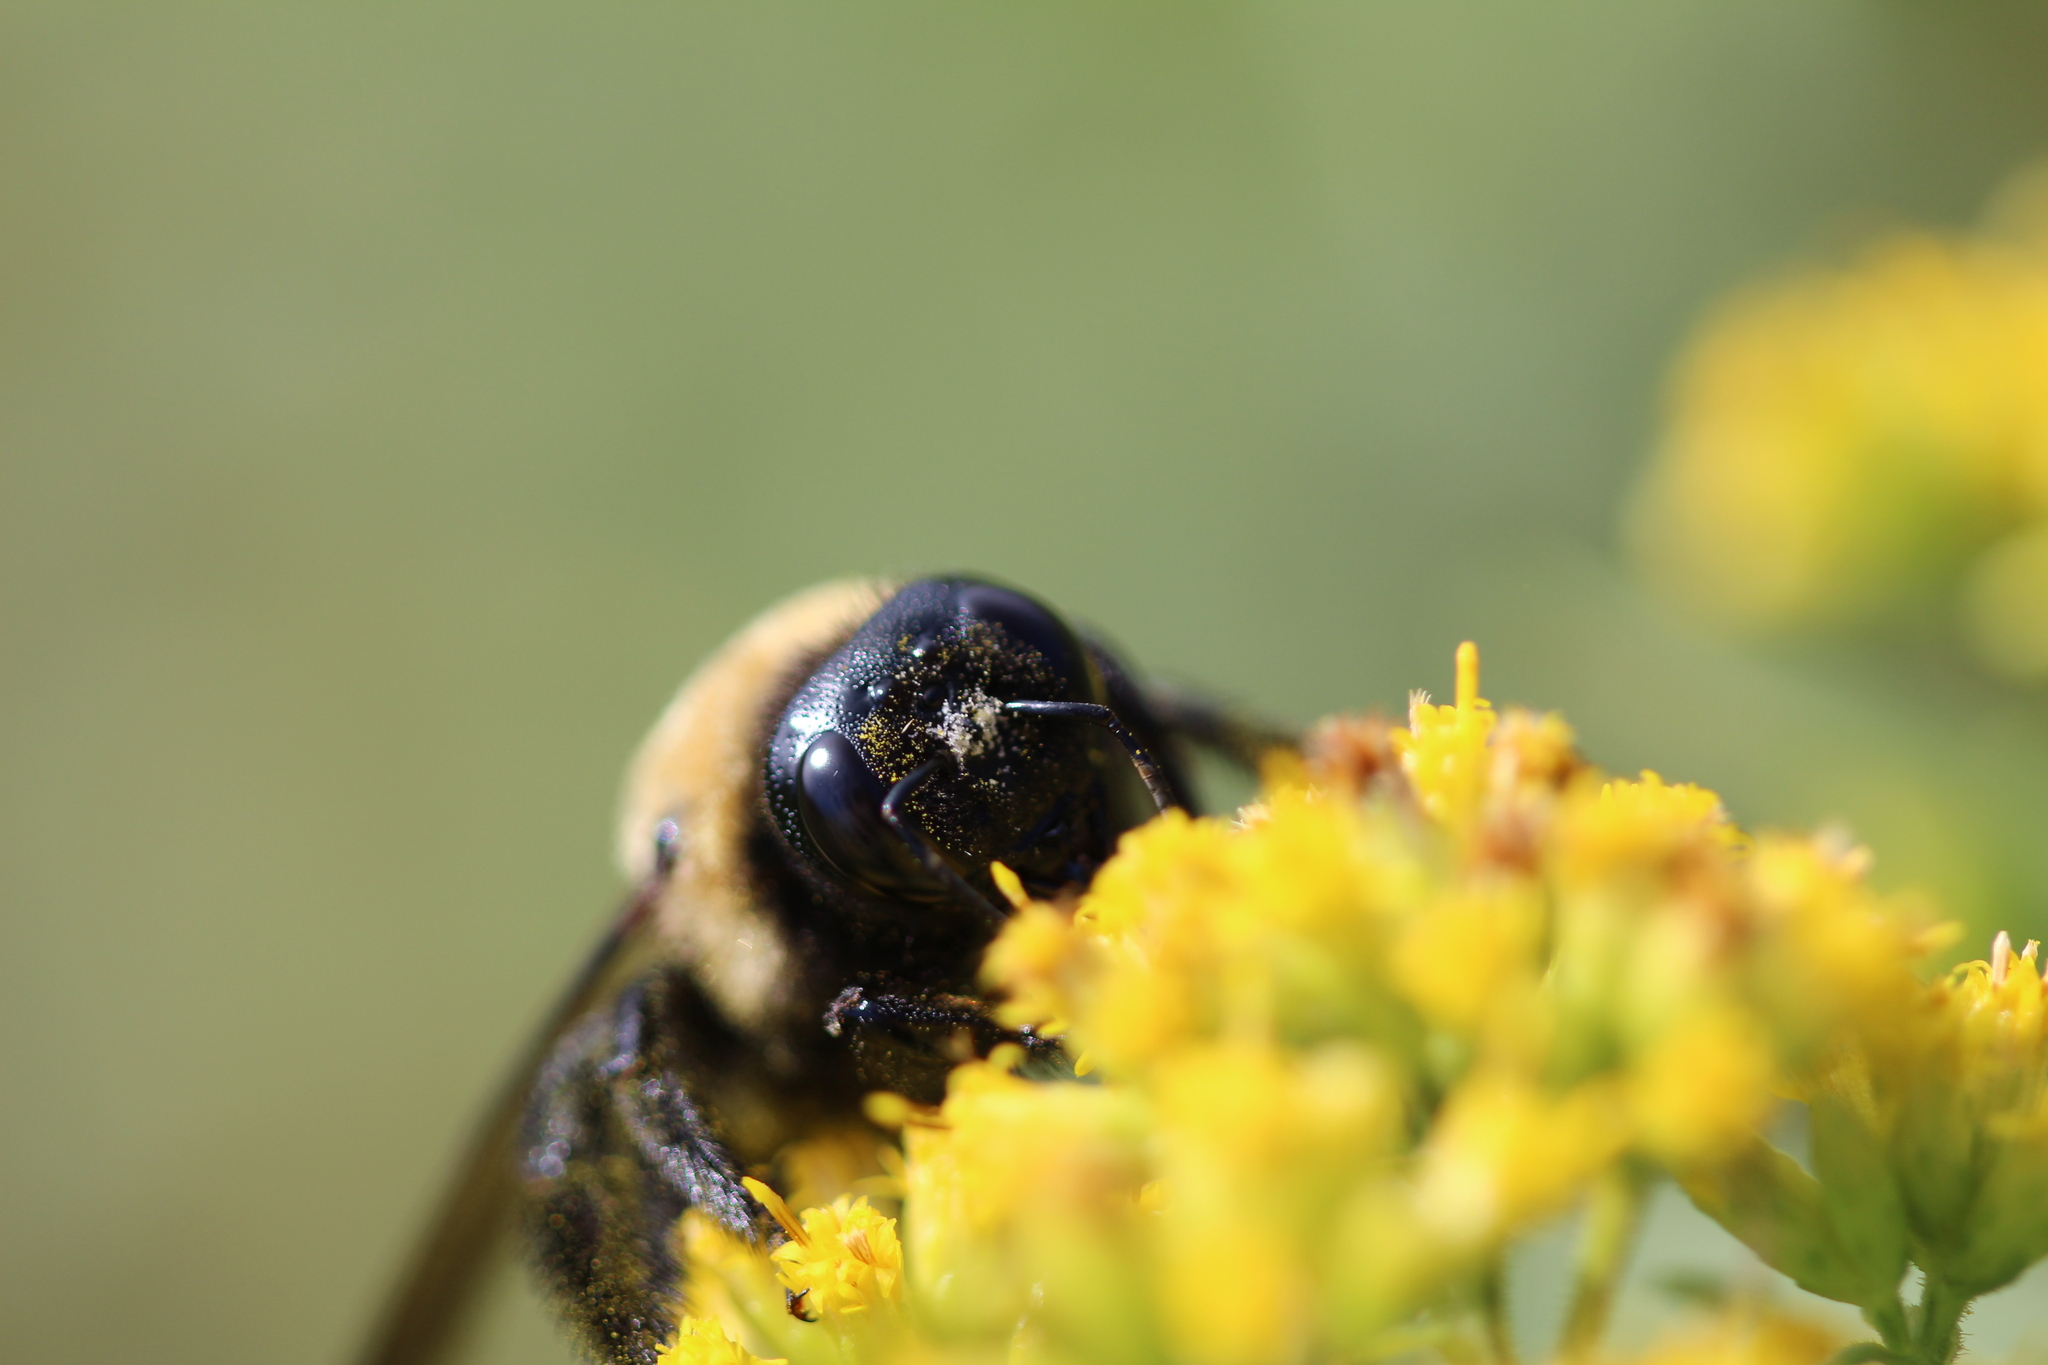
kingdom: Animalia
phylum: Arthropoda
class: Insecta
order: Hymenoptera
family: Apidae
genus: Xylocopa
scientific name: Xylocopa virginica
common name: Carpenter bee
